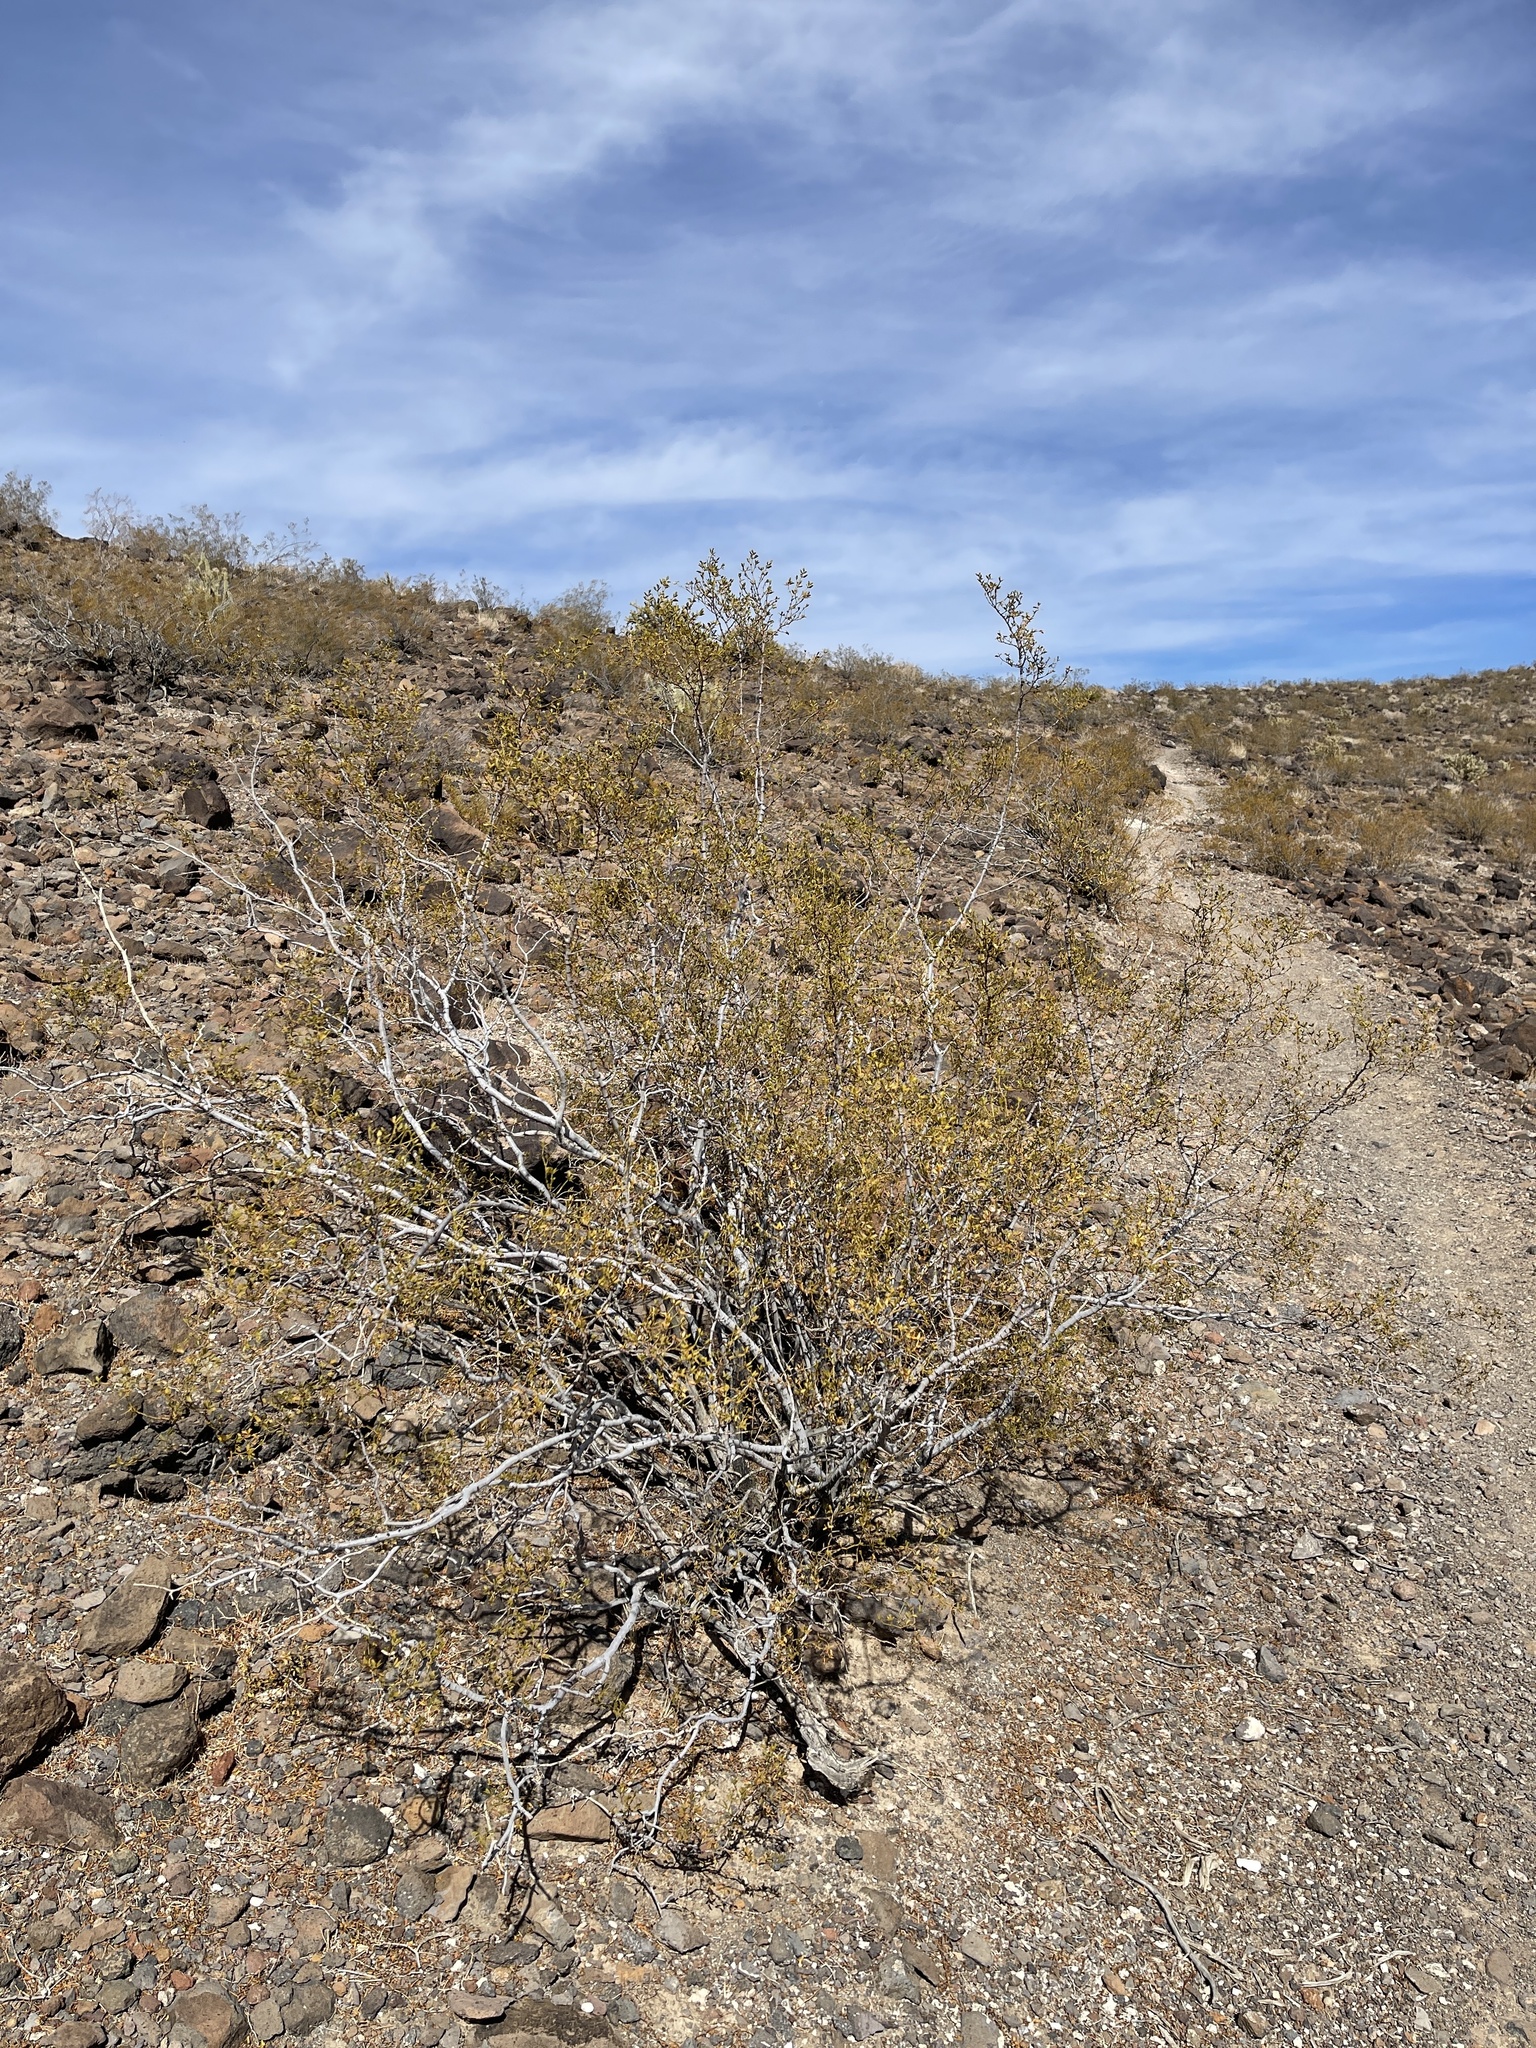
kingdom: Plantae
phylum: Tracheophyta
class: Magnoliopsida
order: Zygophyllales
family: Zygophyllaceae
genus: Larrea
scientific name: Larrea tridentata
